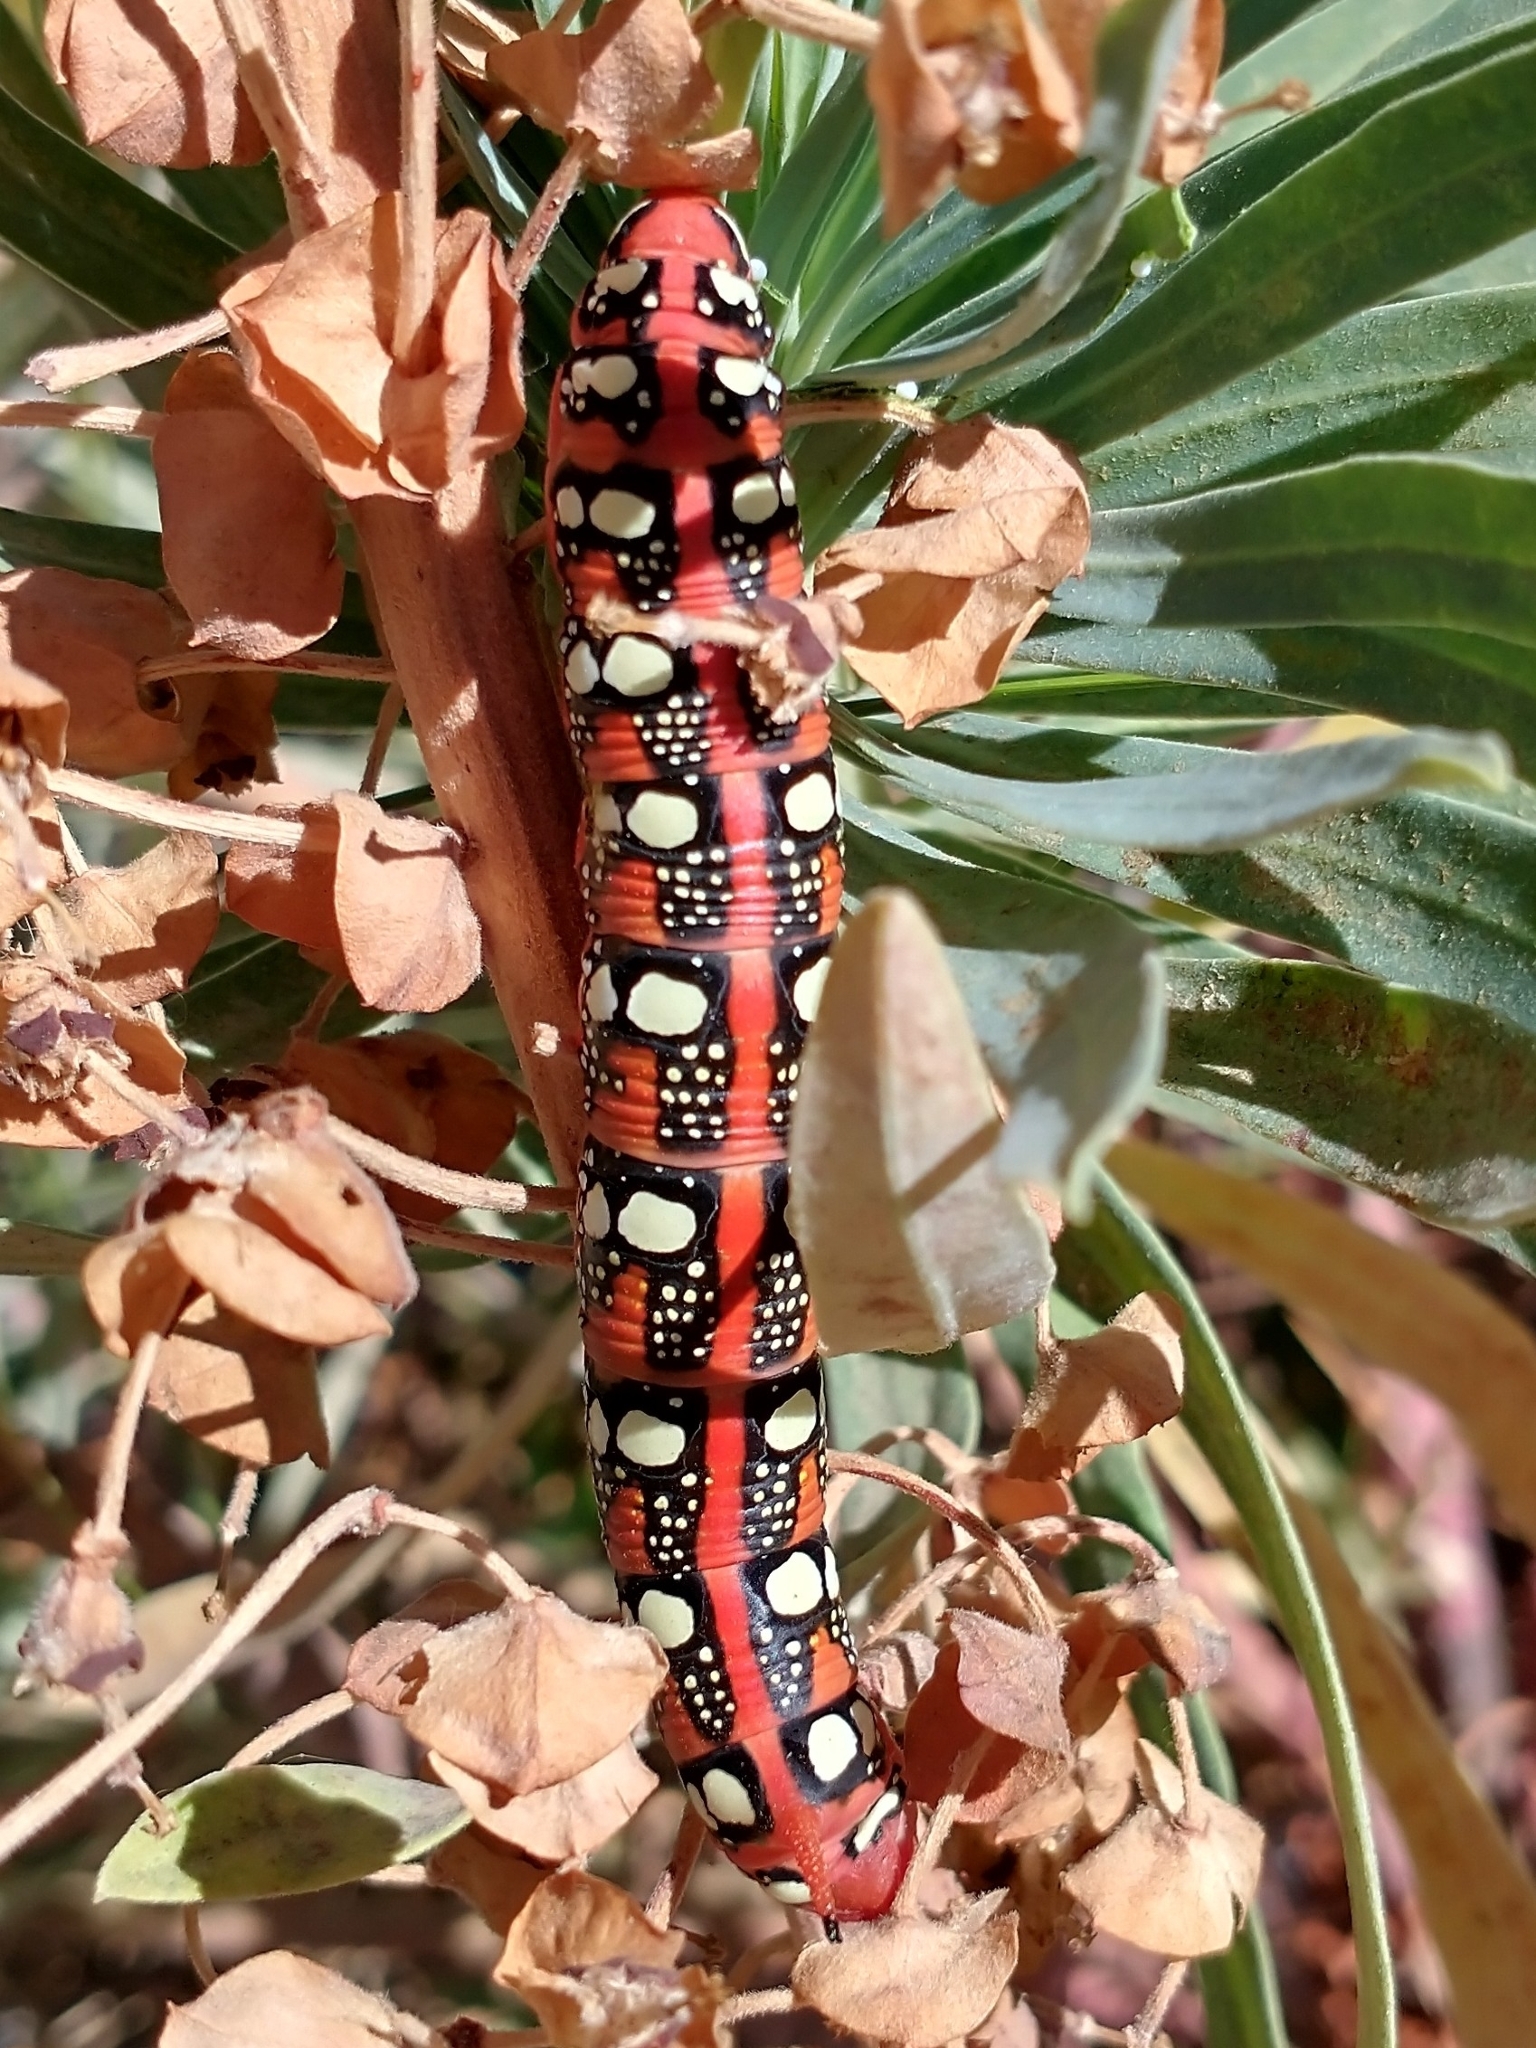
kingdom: Animalia
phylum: Arthropoda
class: Insecta
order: Lepidoptera
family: Sphingidae
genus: Hyles
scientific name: Hyles euphorbiae
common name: Spurge hawk-moth
